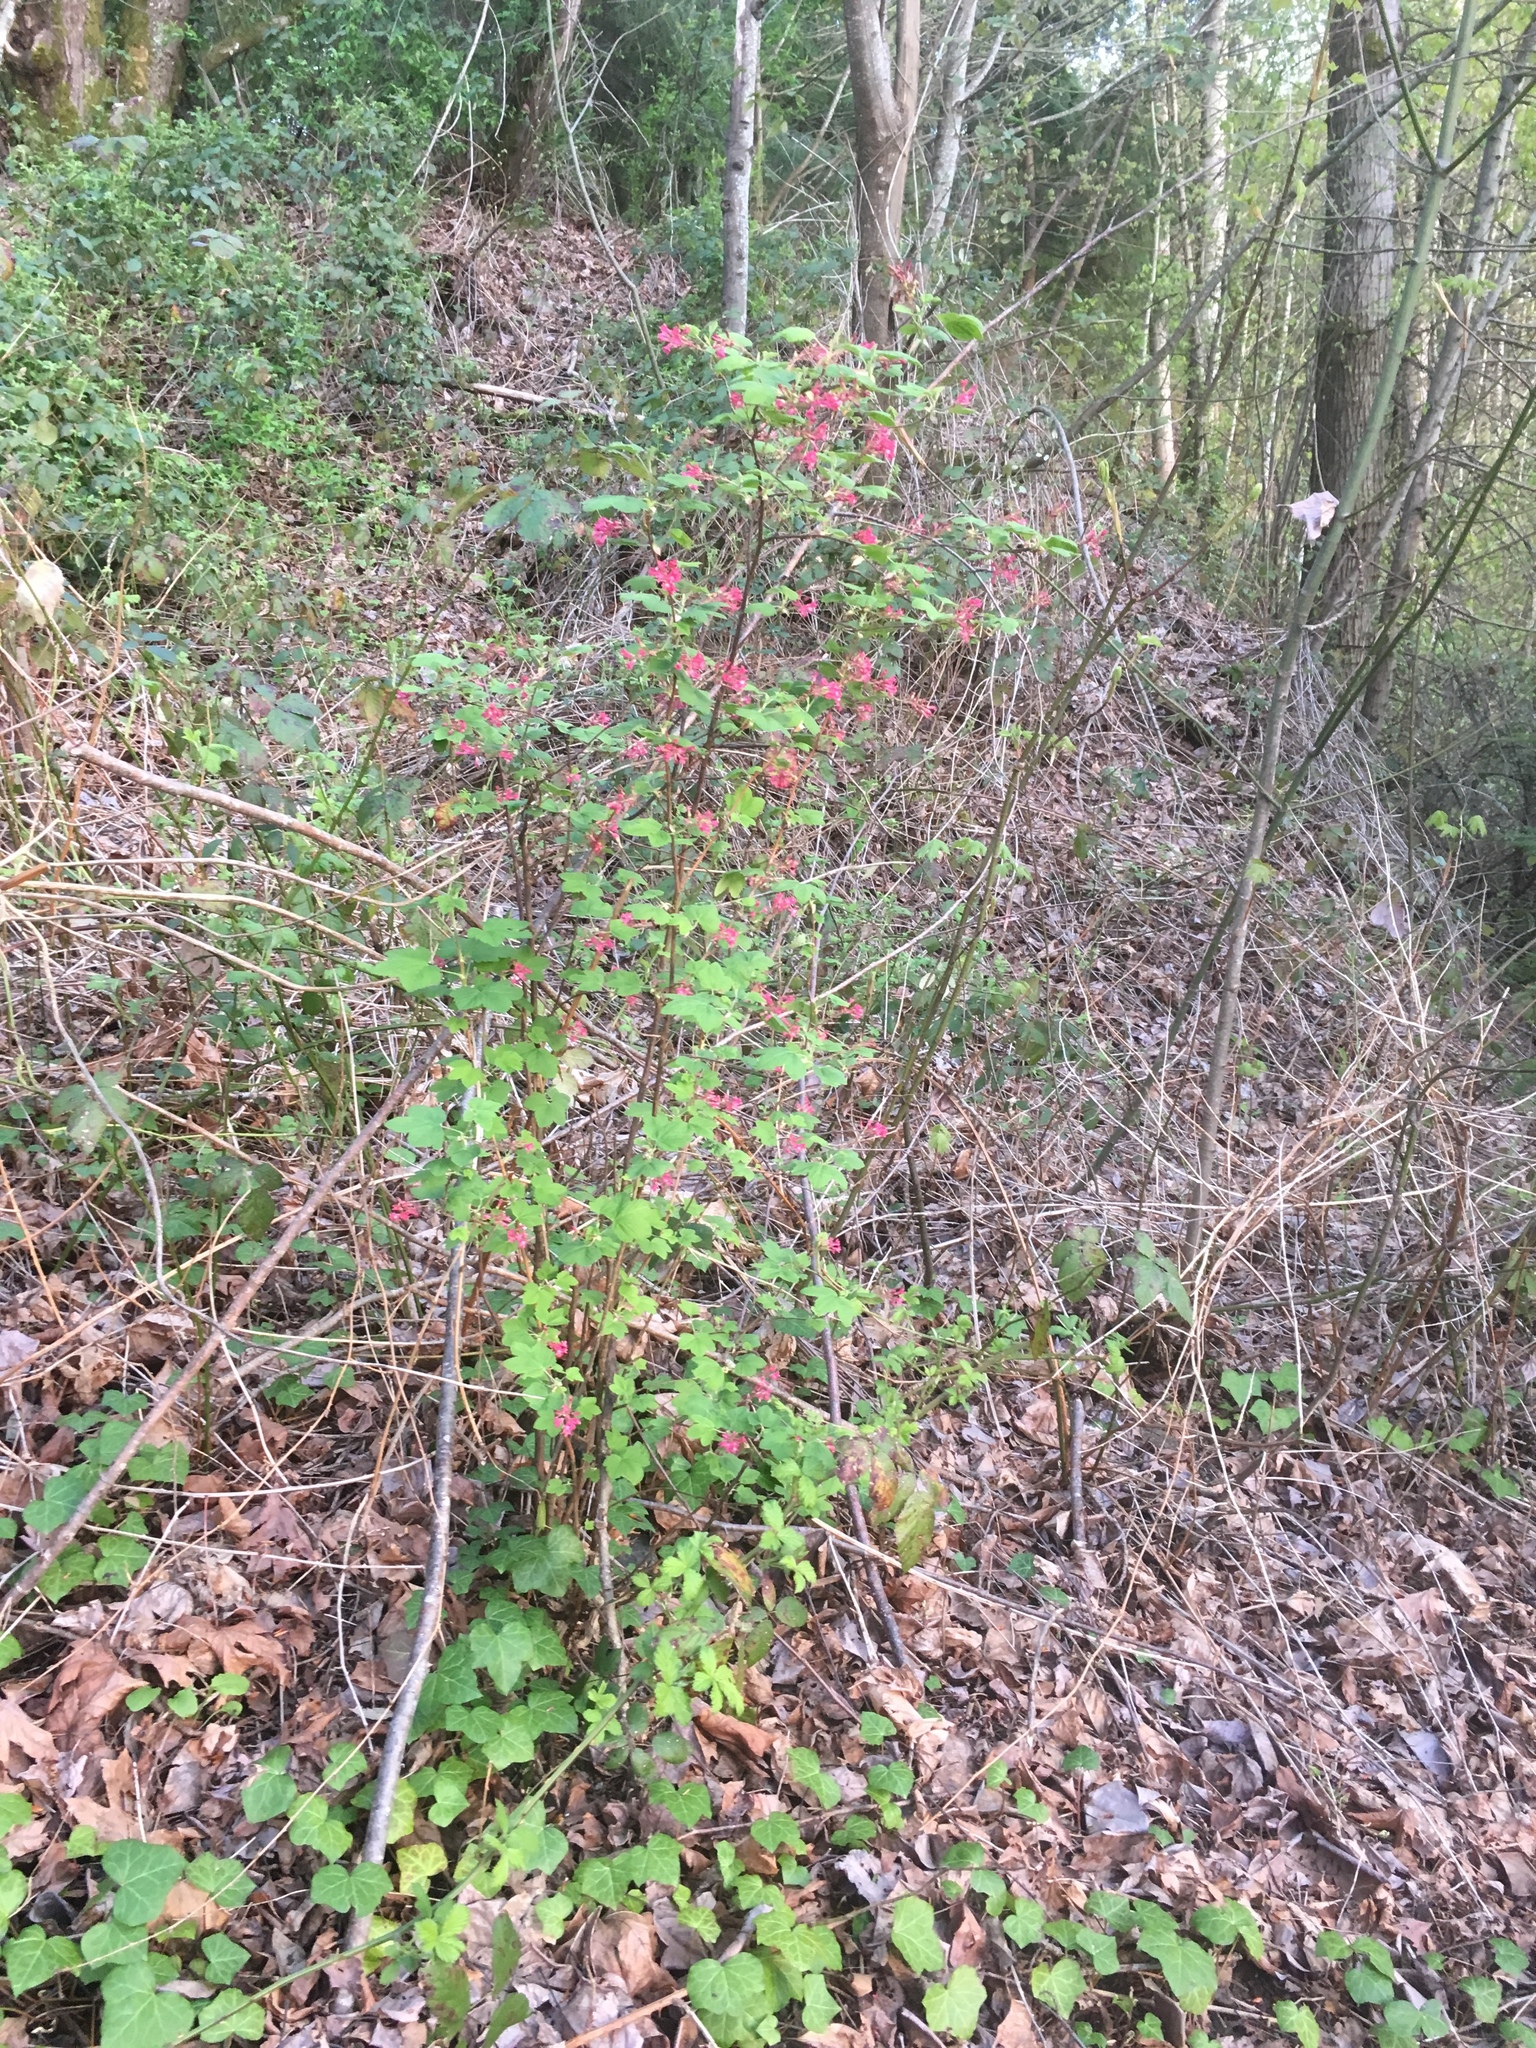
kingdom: Plantae
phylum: Tracheophyta
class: Magnoliopsida
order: Saxifragales
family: Grossulariaceae
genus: Ribes
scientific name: Ribes sanguineum
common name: Flowering currant
